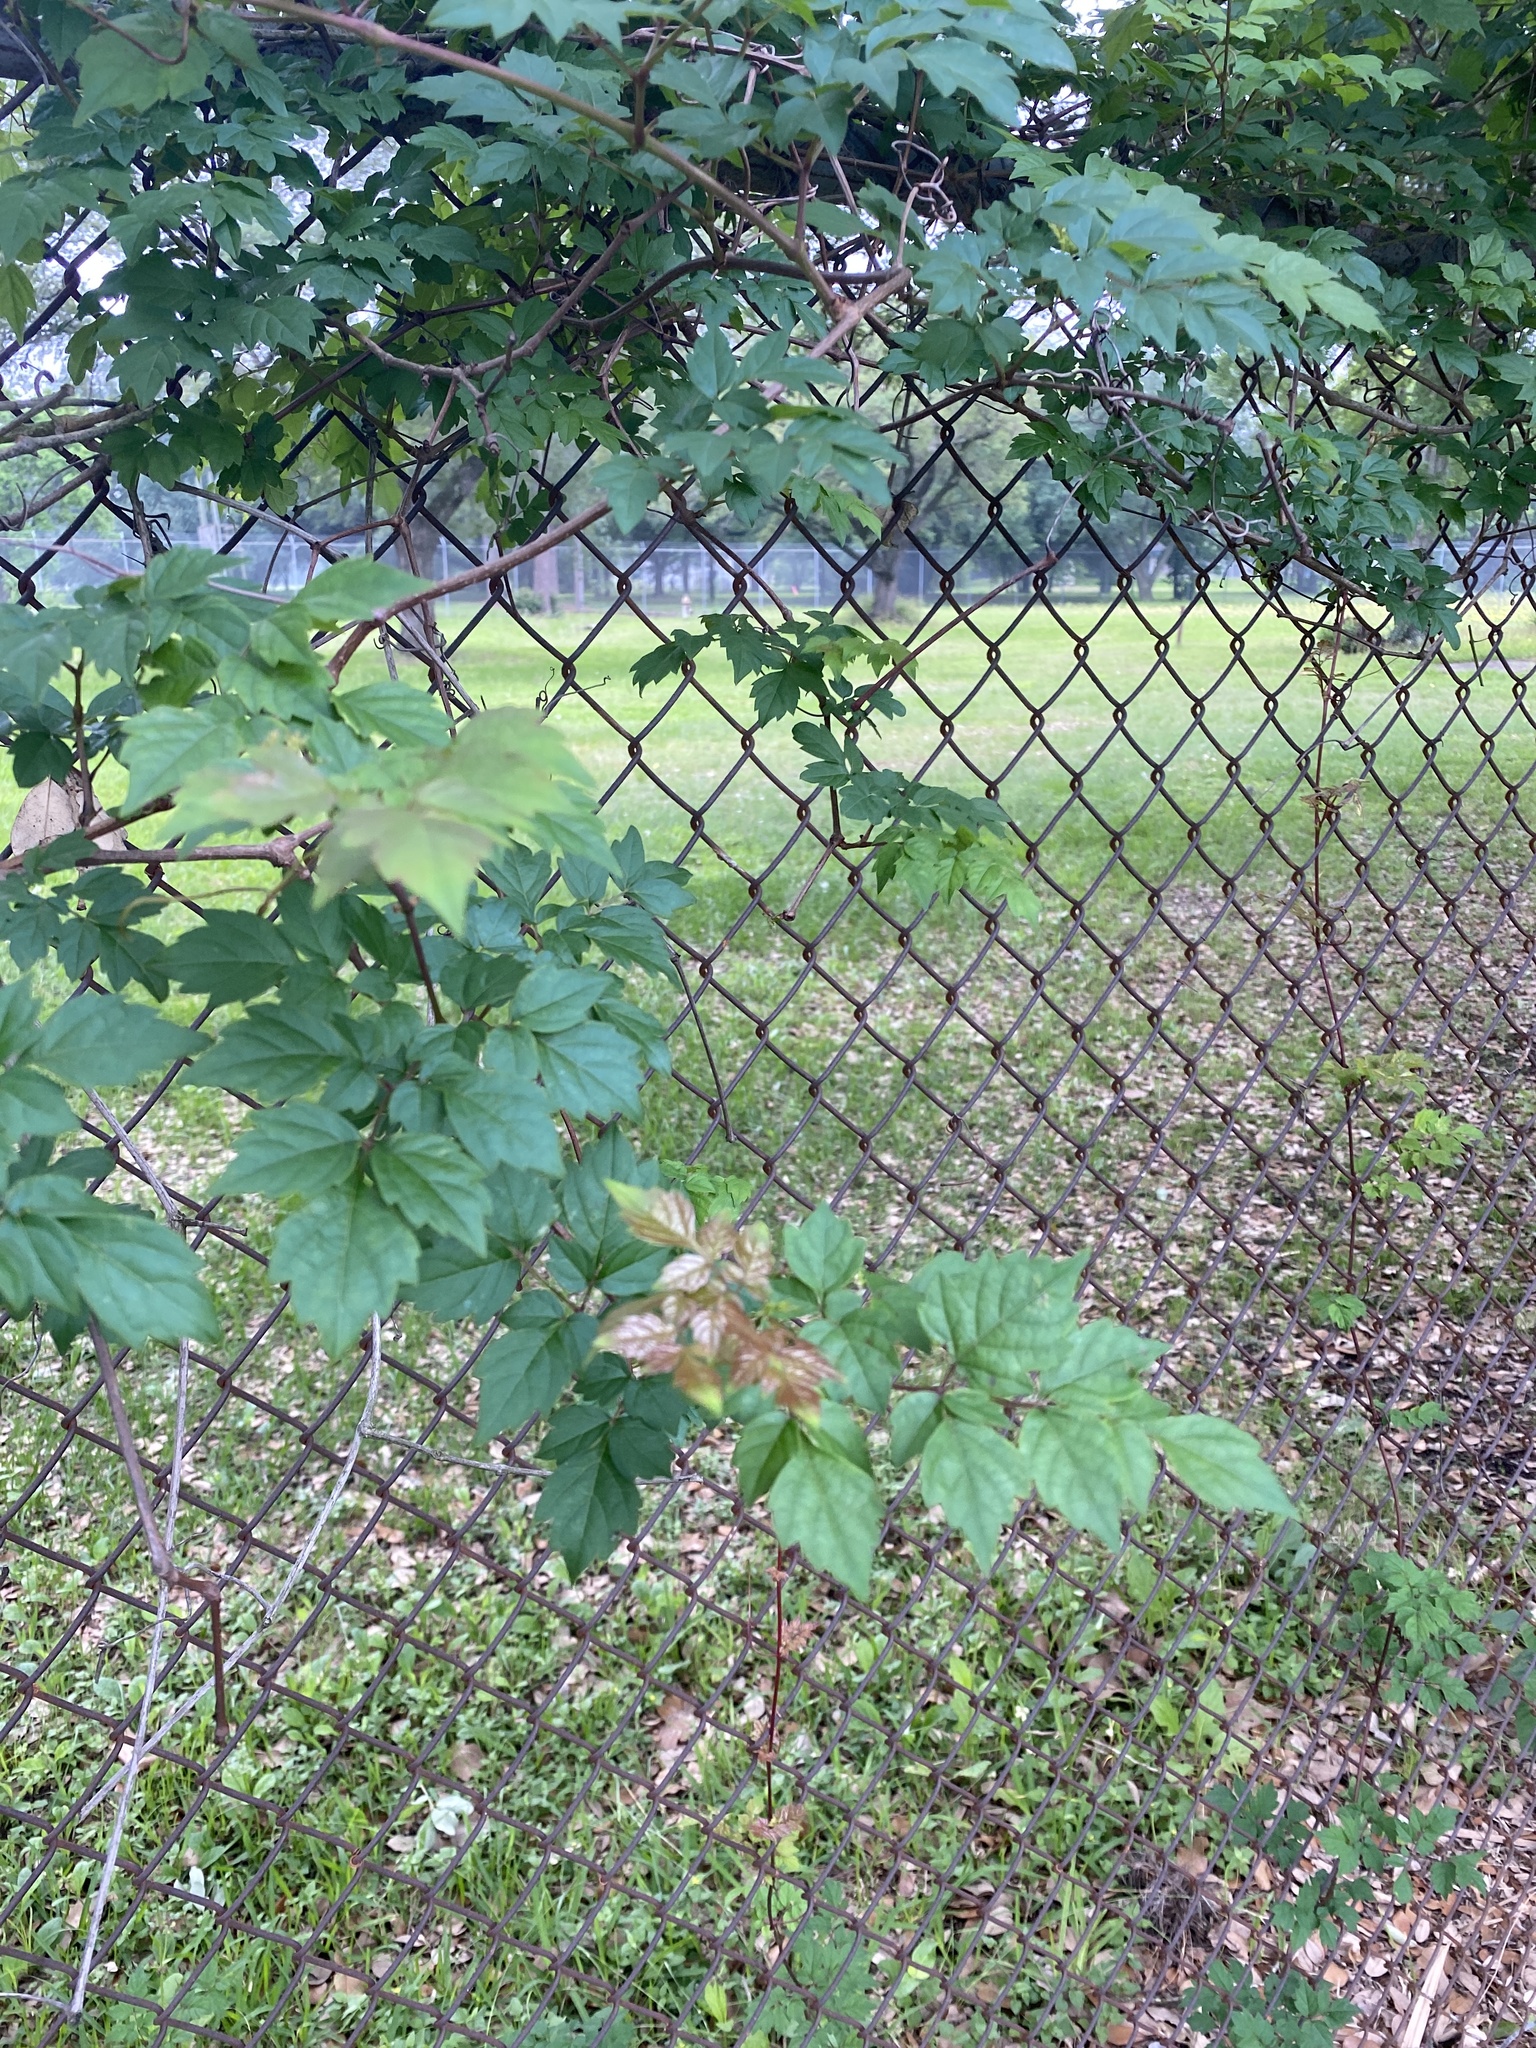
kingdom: Plantae
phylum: Tracheophyta
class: Magnoliopsida
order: Vitales
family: Vitaceae
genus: Nekemias
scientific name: Nekemias arborea
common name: Peppervine
